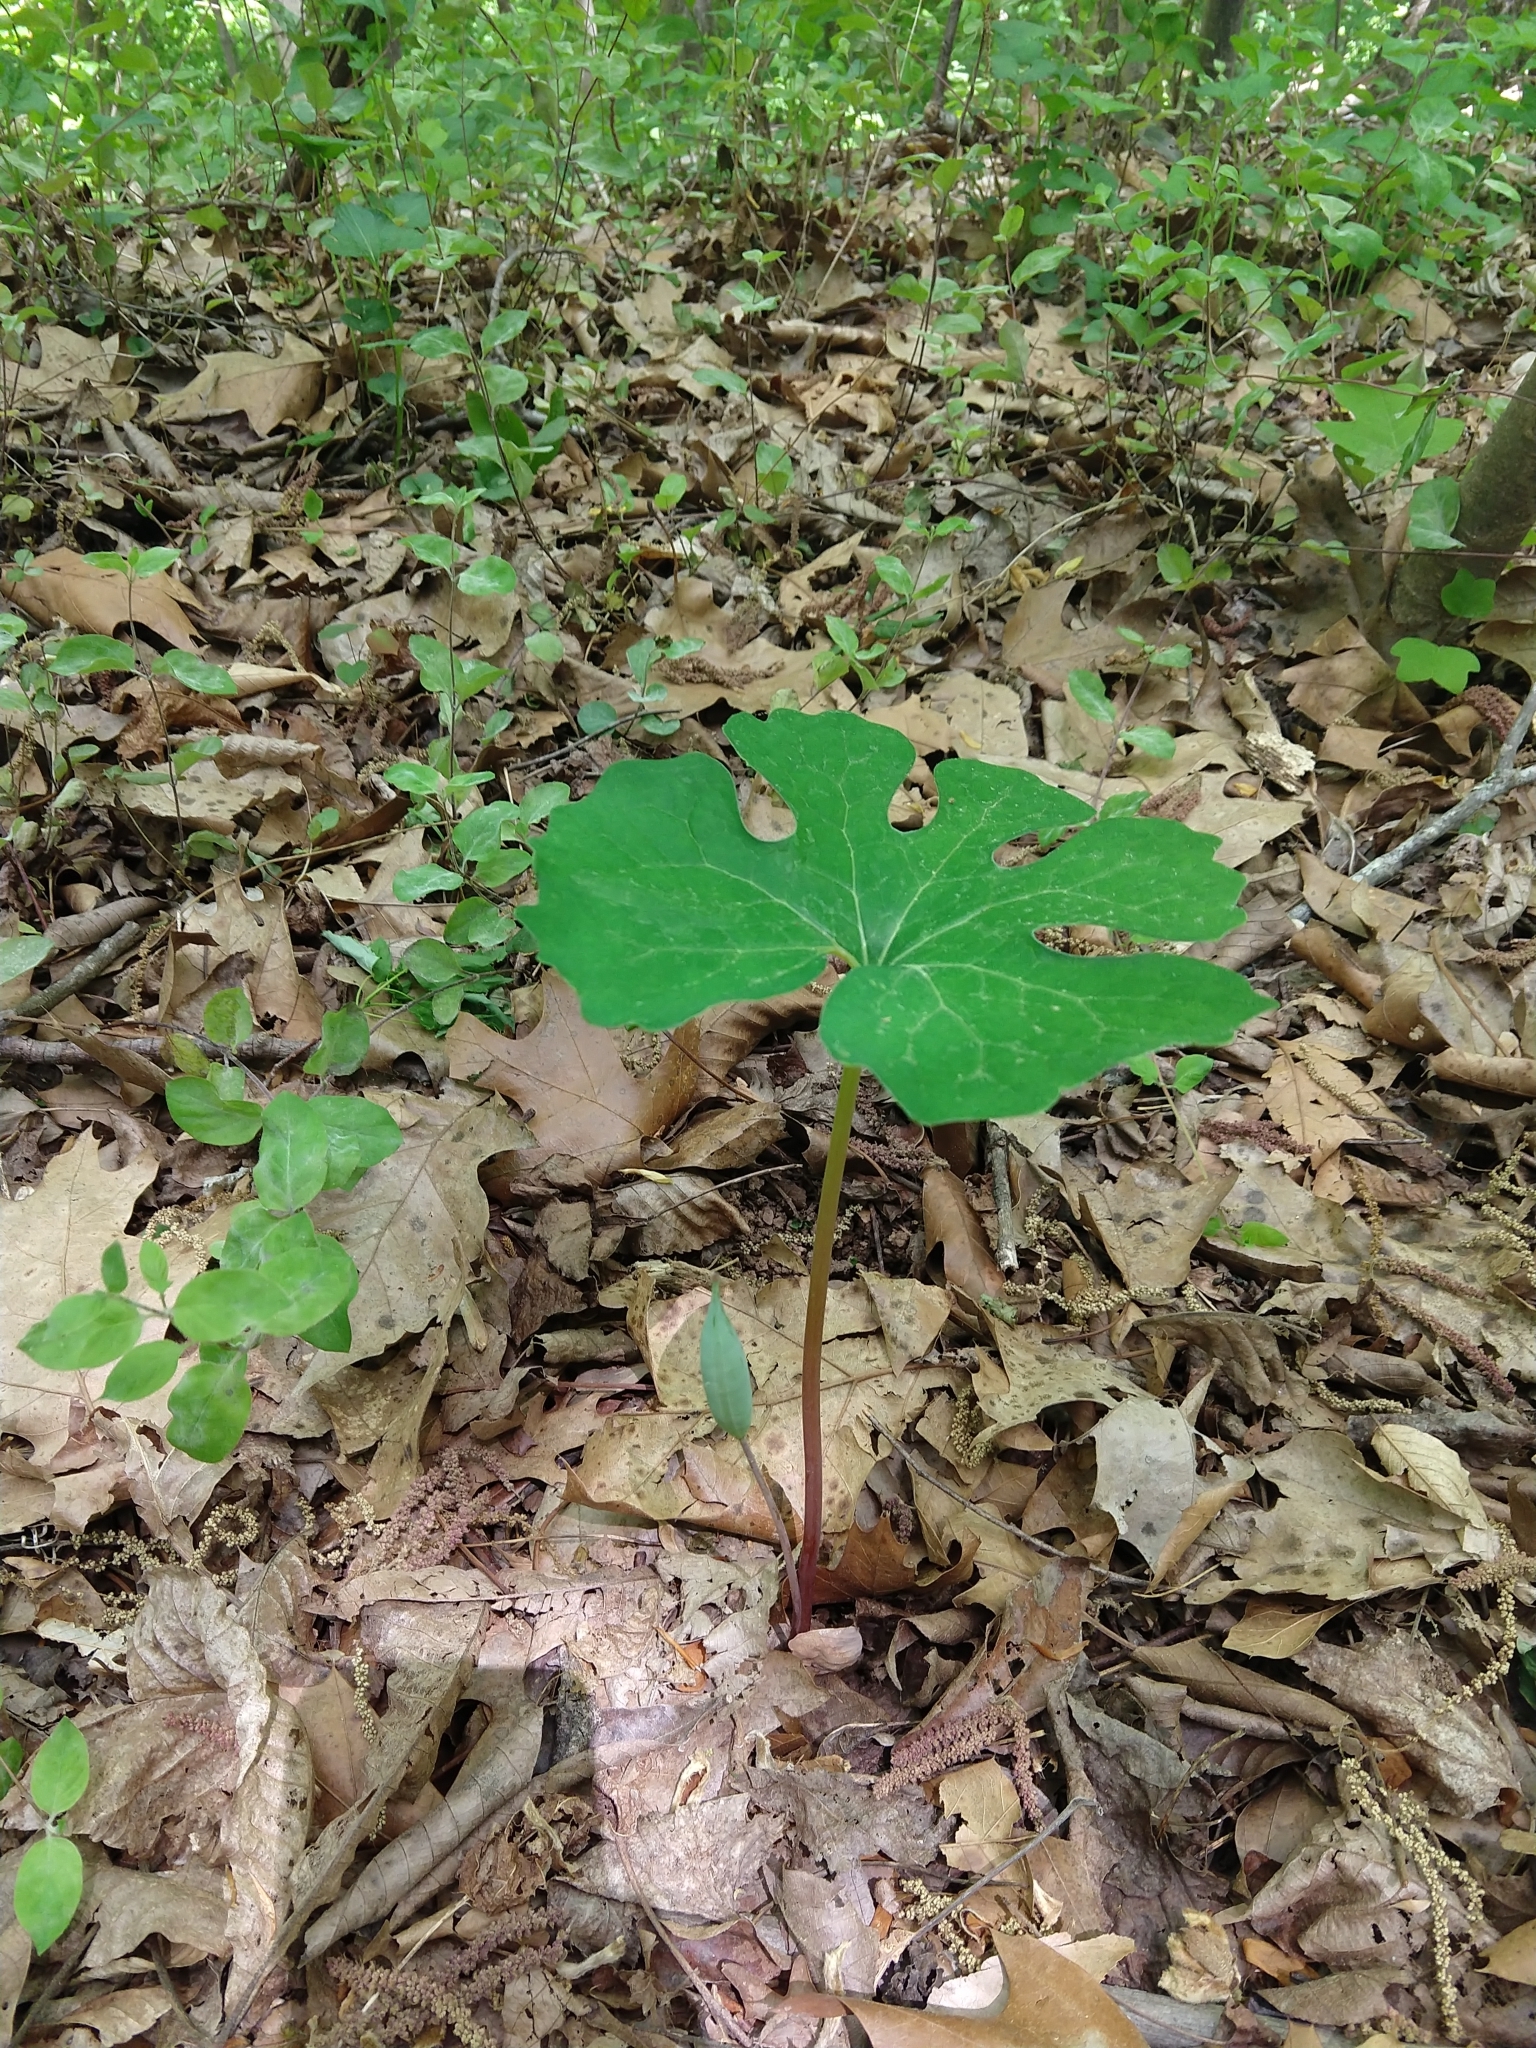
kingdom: Plantae
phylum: Tracheophyta
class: Magnoliopsida
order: Ranunculales
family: Papaveraceae
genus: Sanguinaria
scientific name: Sanguinaria canadensis
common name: Bloodroot
